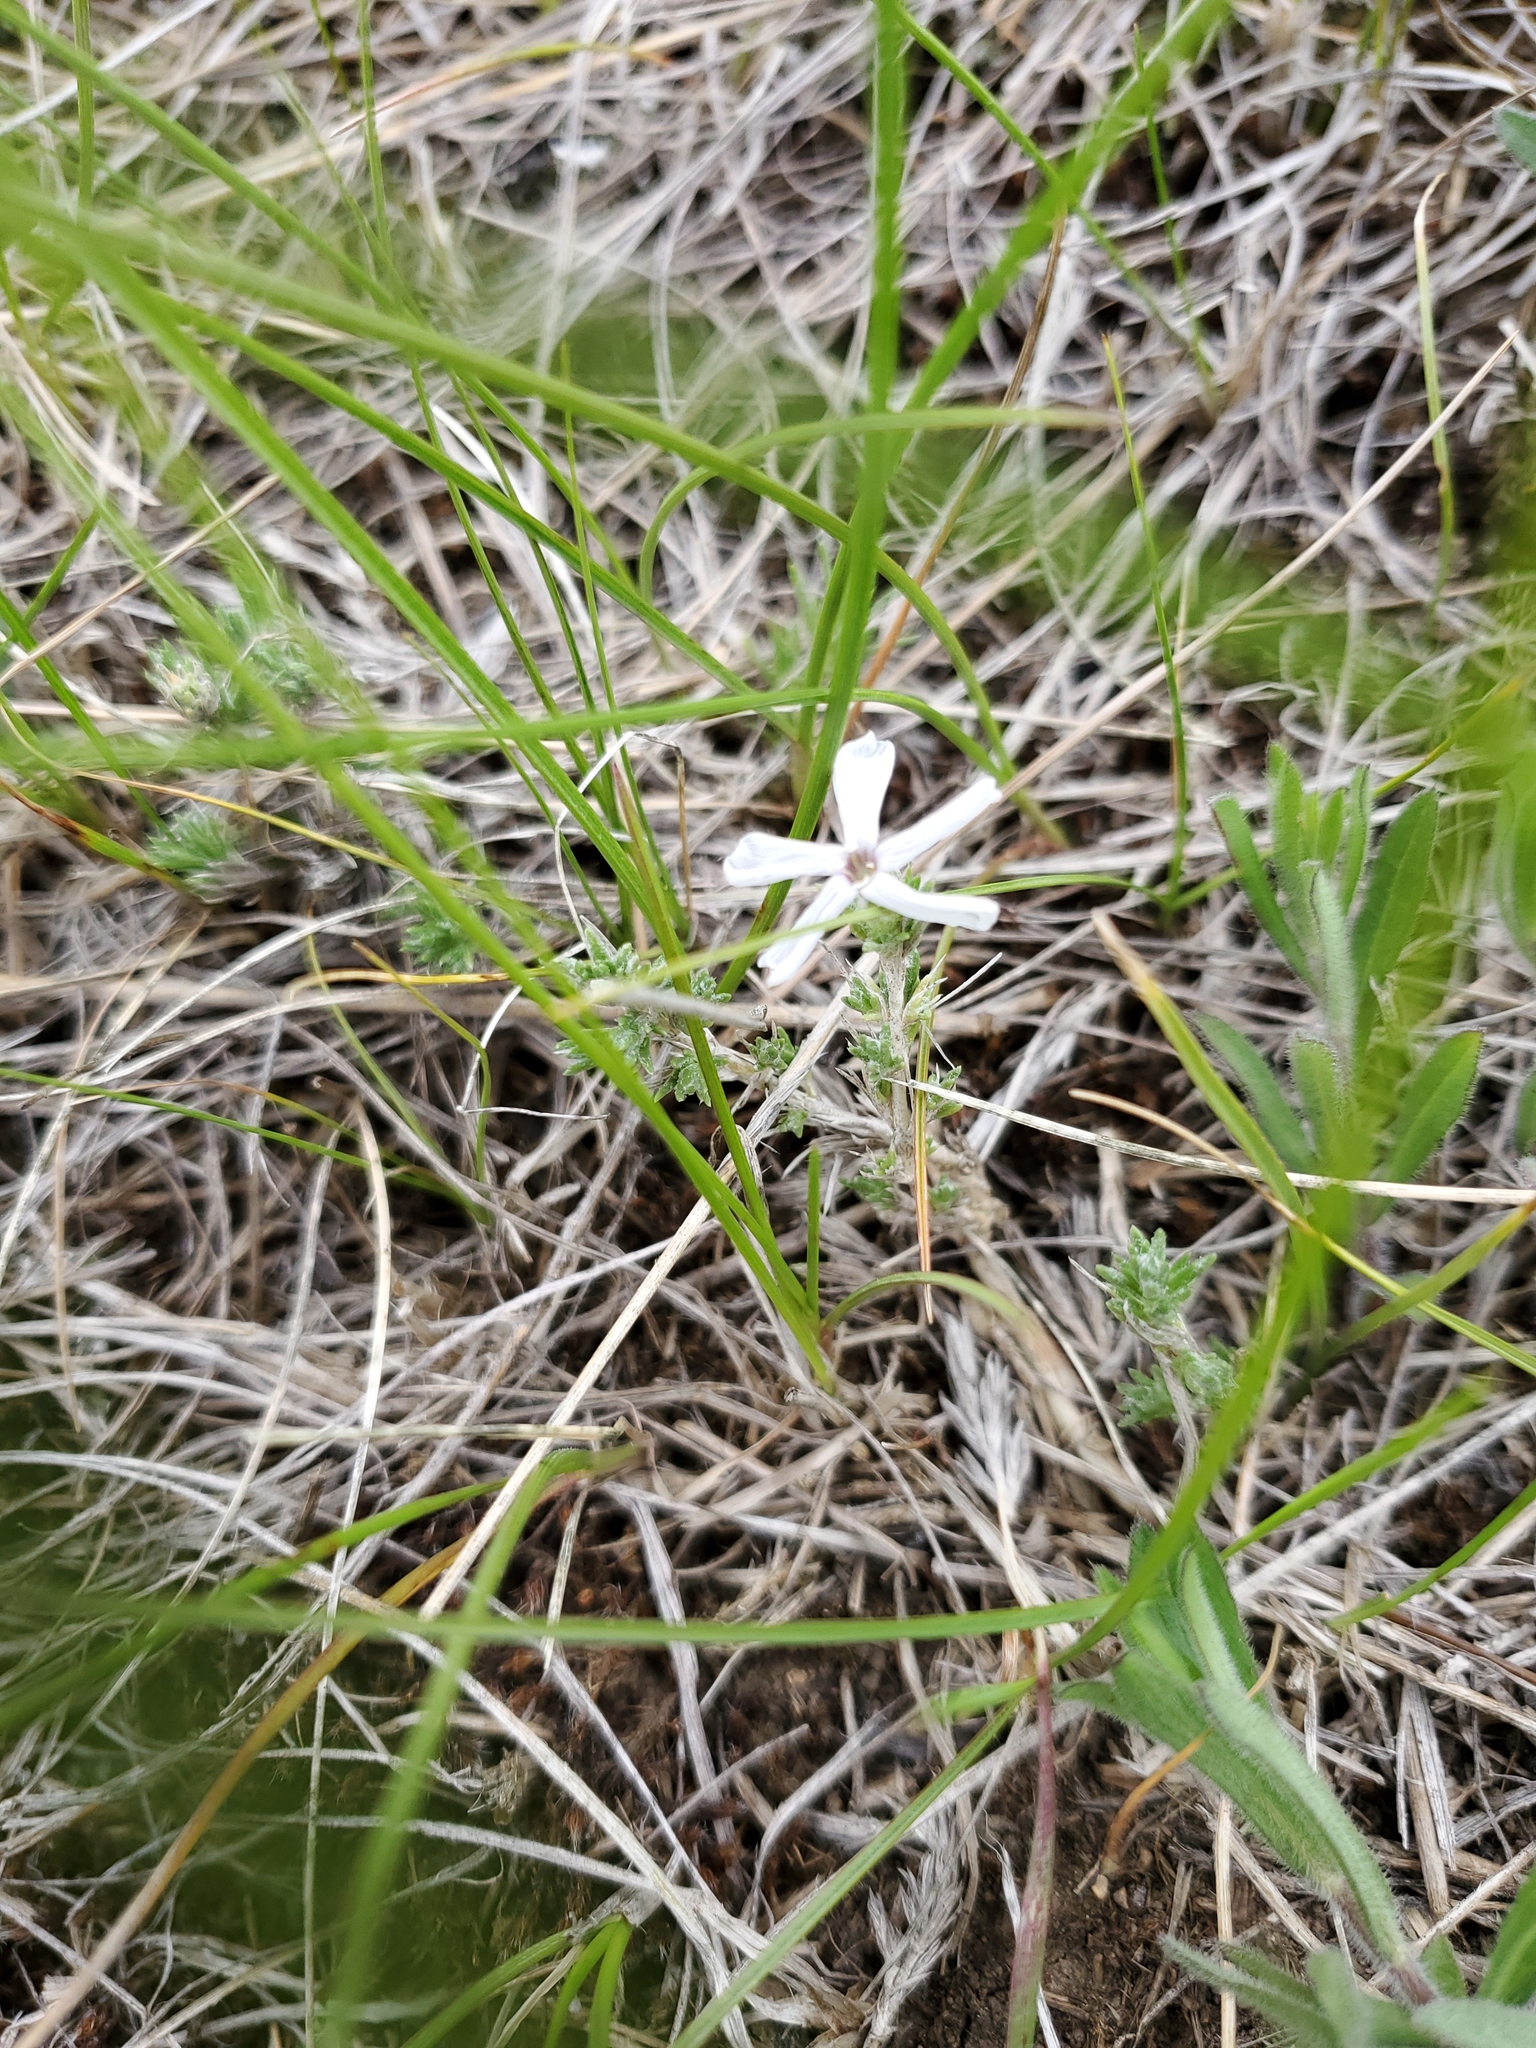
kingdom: Plantae
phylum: Tracheophyta
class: Magnoliopsida
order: Ericales
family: Polemoniaceae
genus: Phlox
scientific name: Phlox hoodii
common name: Moss phlox
